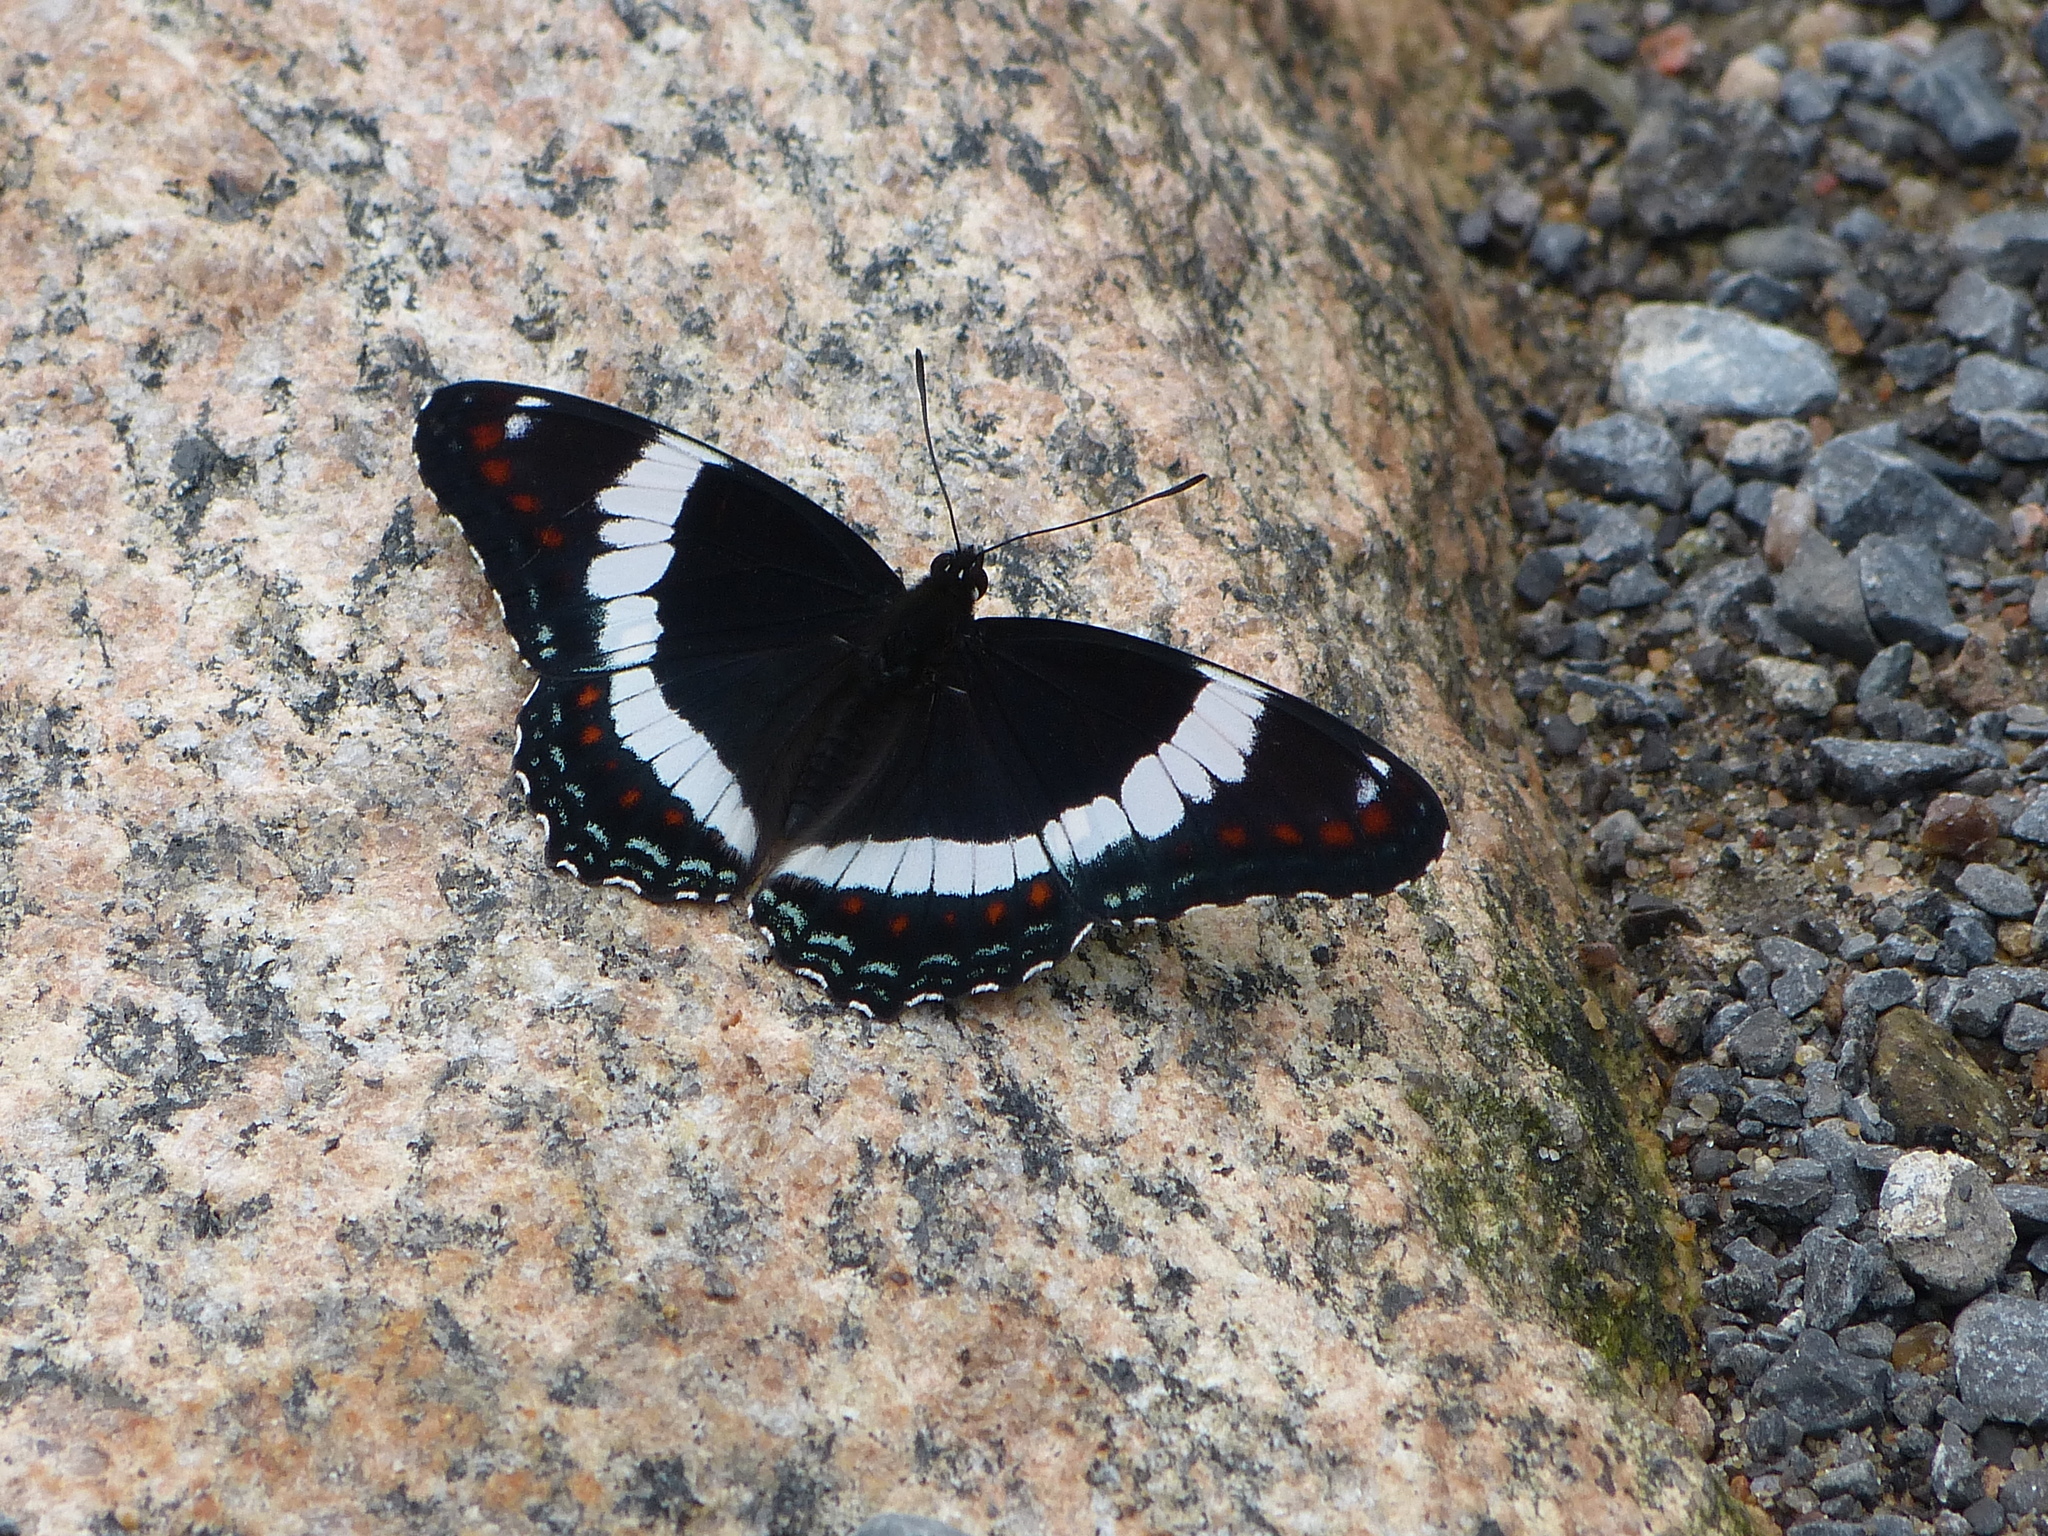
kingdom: Animalia
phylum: Arthropoda
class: Insecta
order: Lepidoptera
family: Nymphalidae
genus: Limenitis
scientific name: Limenitis arthemis
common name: Red-spotted admiral
